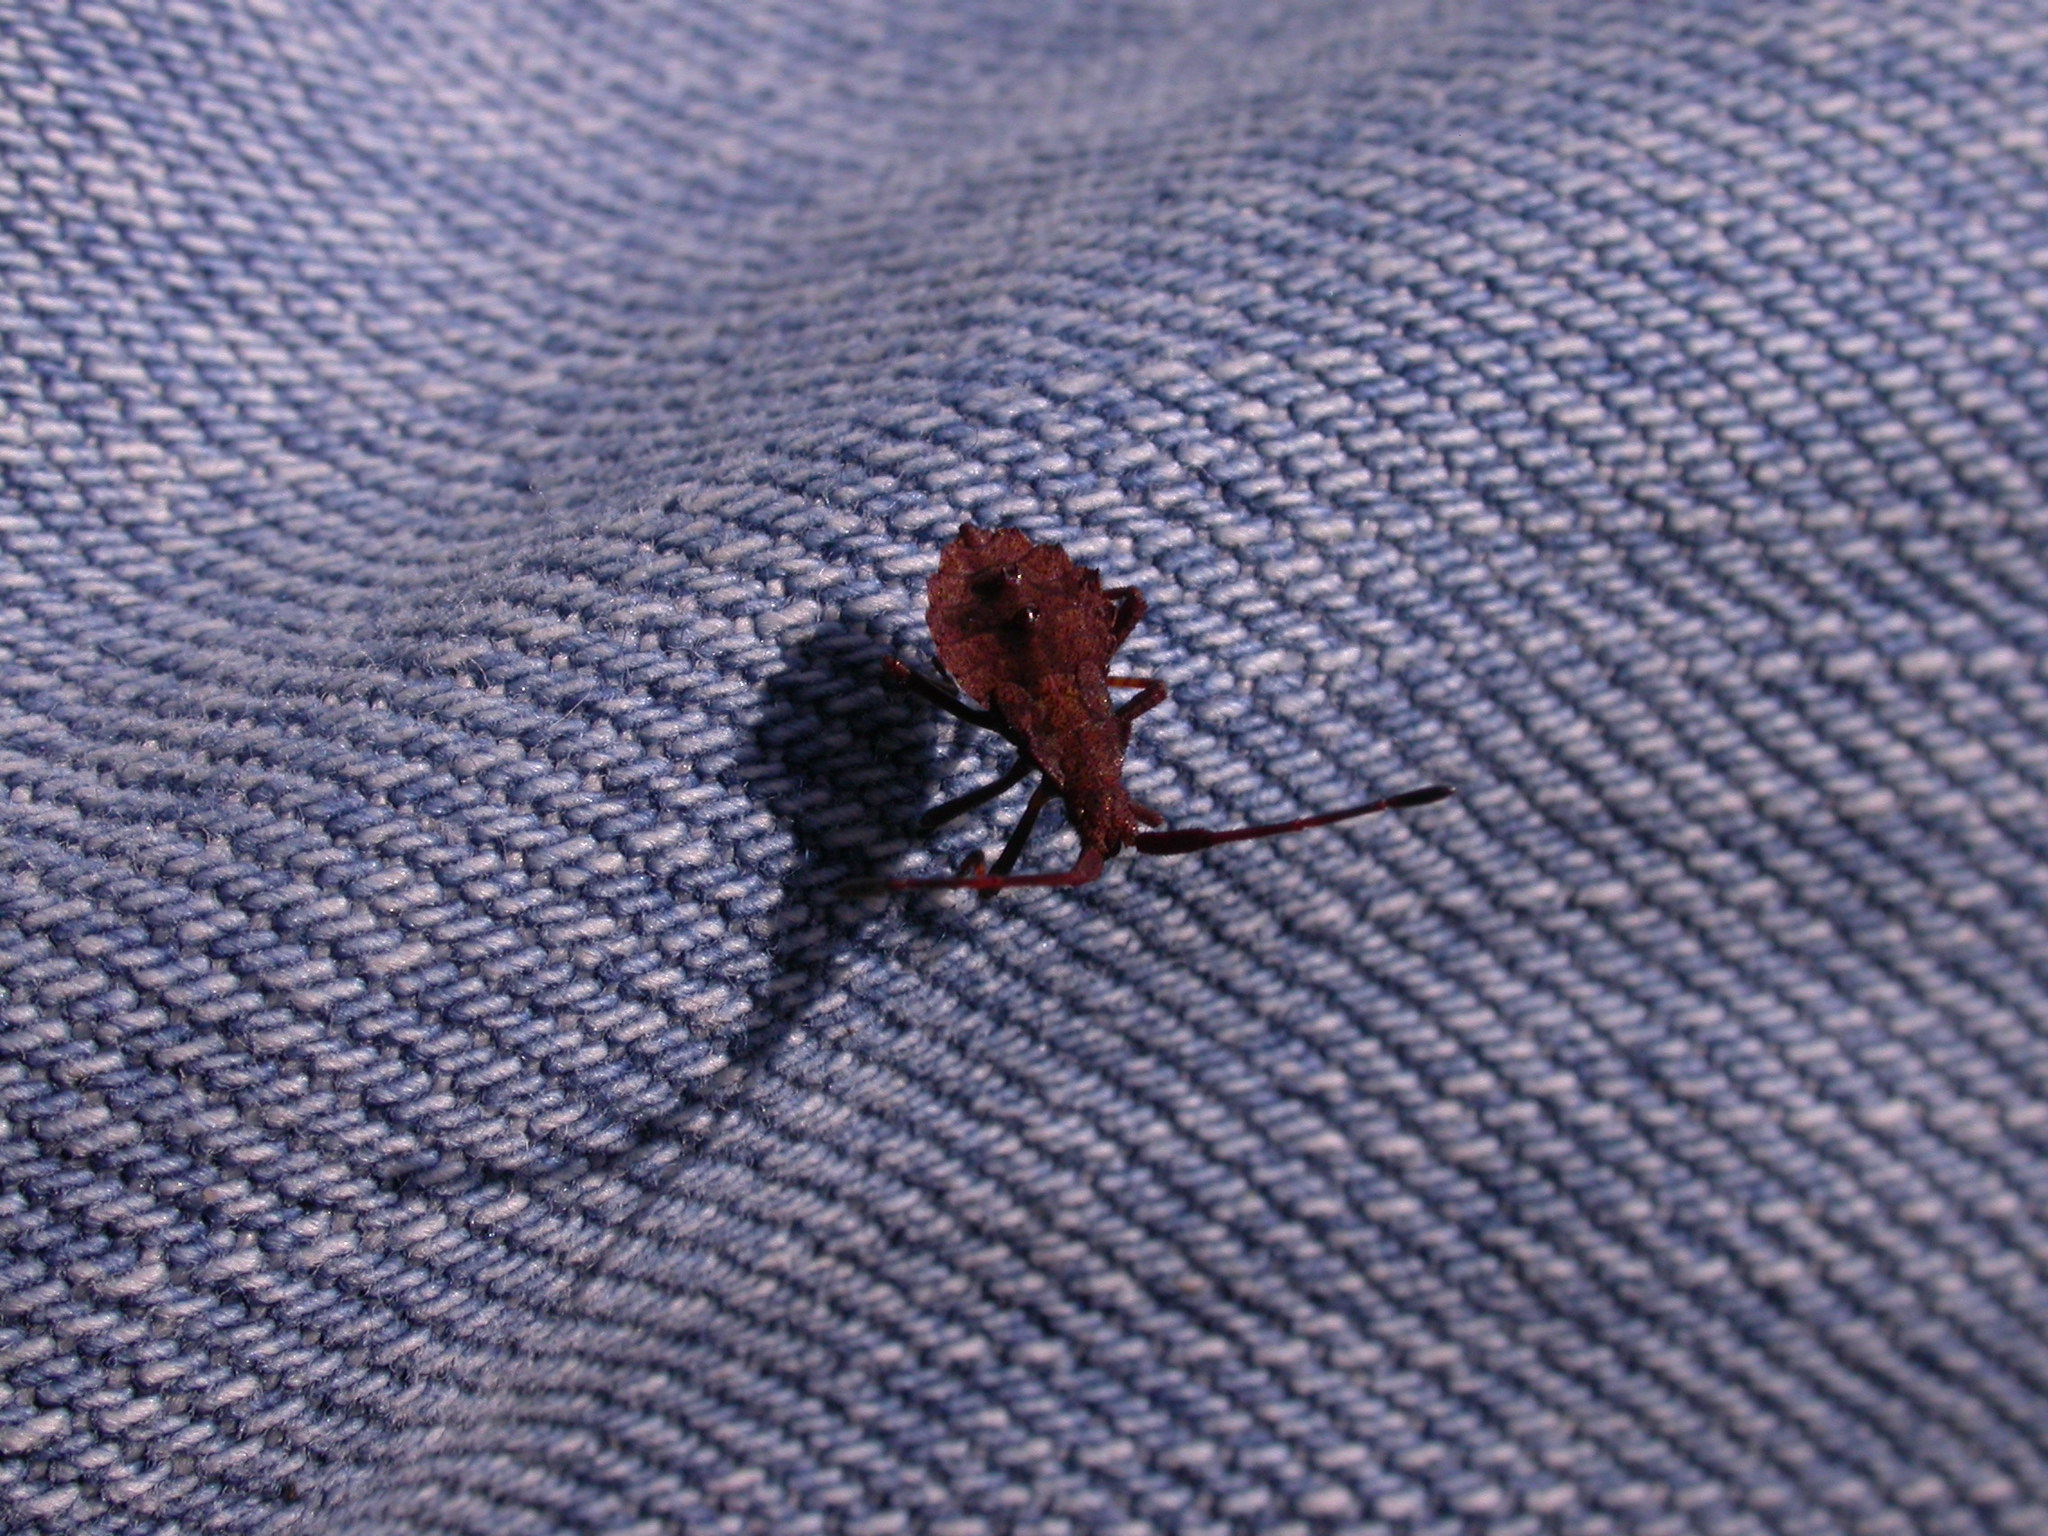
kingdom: Animalia
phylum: Arthropoda
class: Insecta
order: Hemiptera
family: Coreidae
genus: Coreus
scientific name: Coreus marginatus
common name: Dock bug
